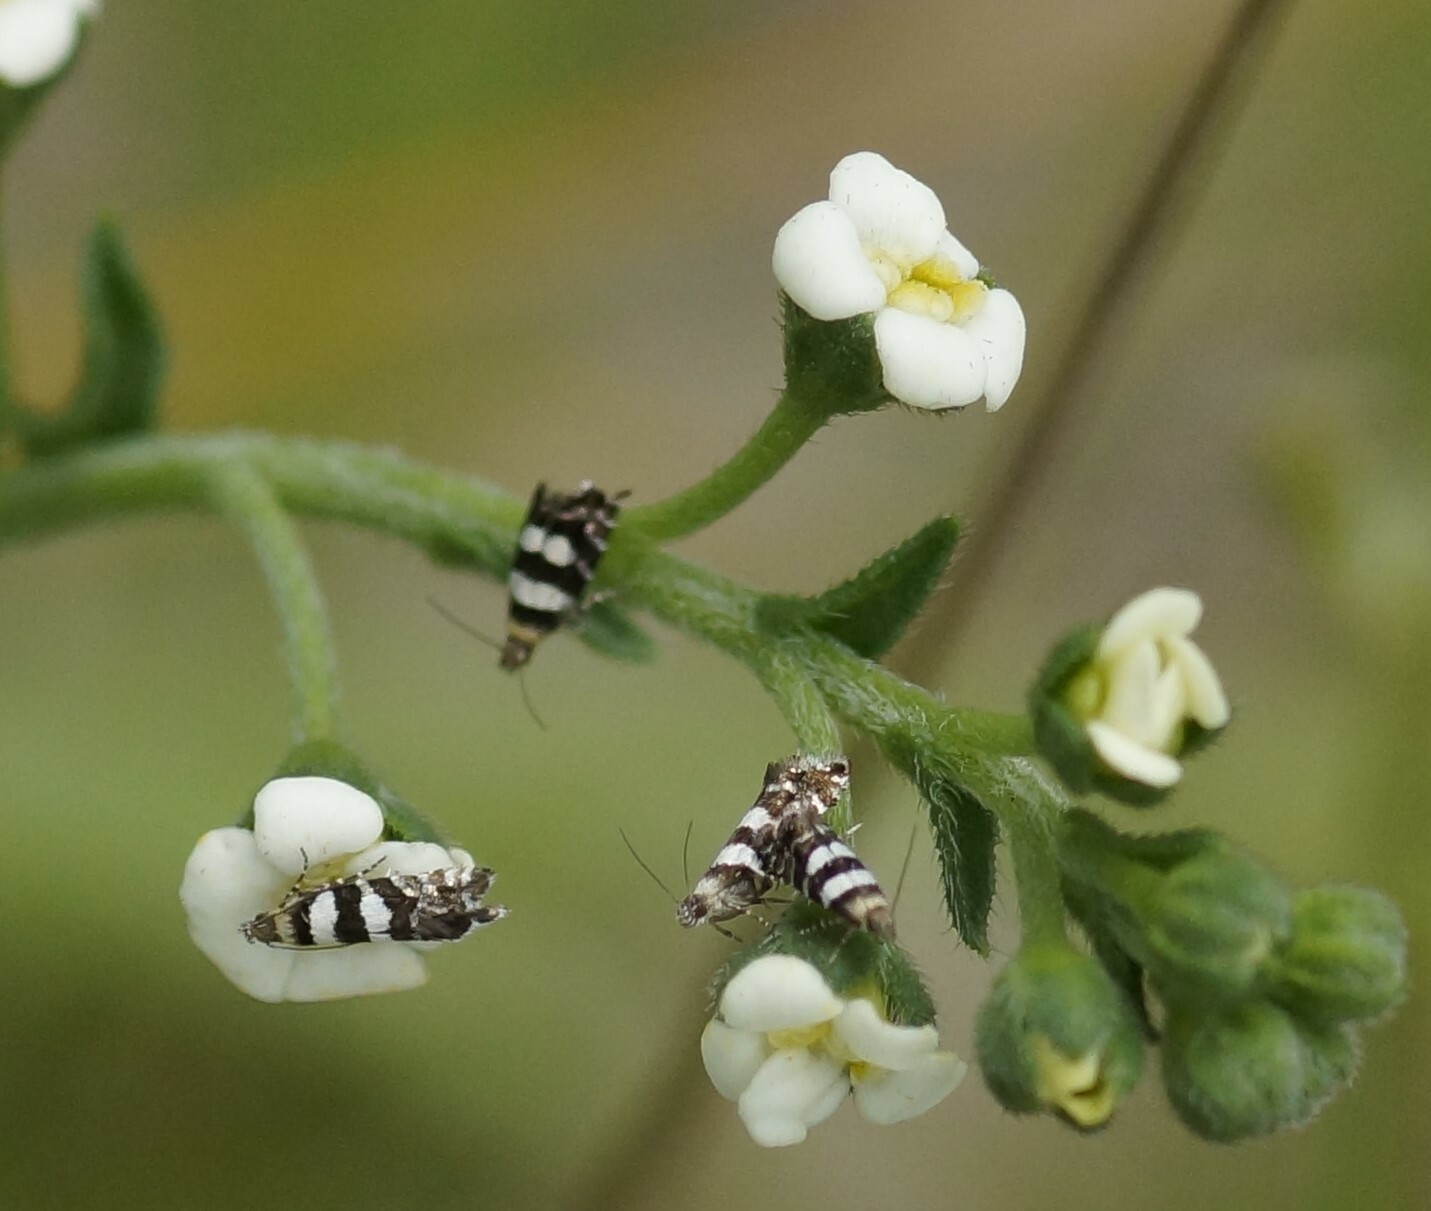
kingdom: Animalia
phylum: Arthropoda
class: Insecta
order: Lepidoptera
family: Glyphipterigidae
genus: Glyphipterix
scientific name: Glyphipterix meteora
